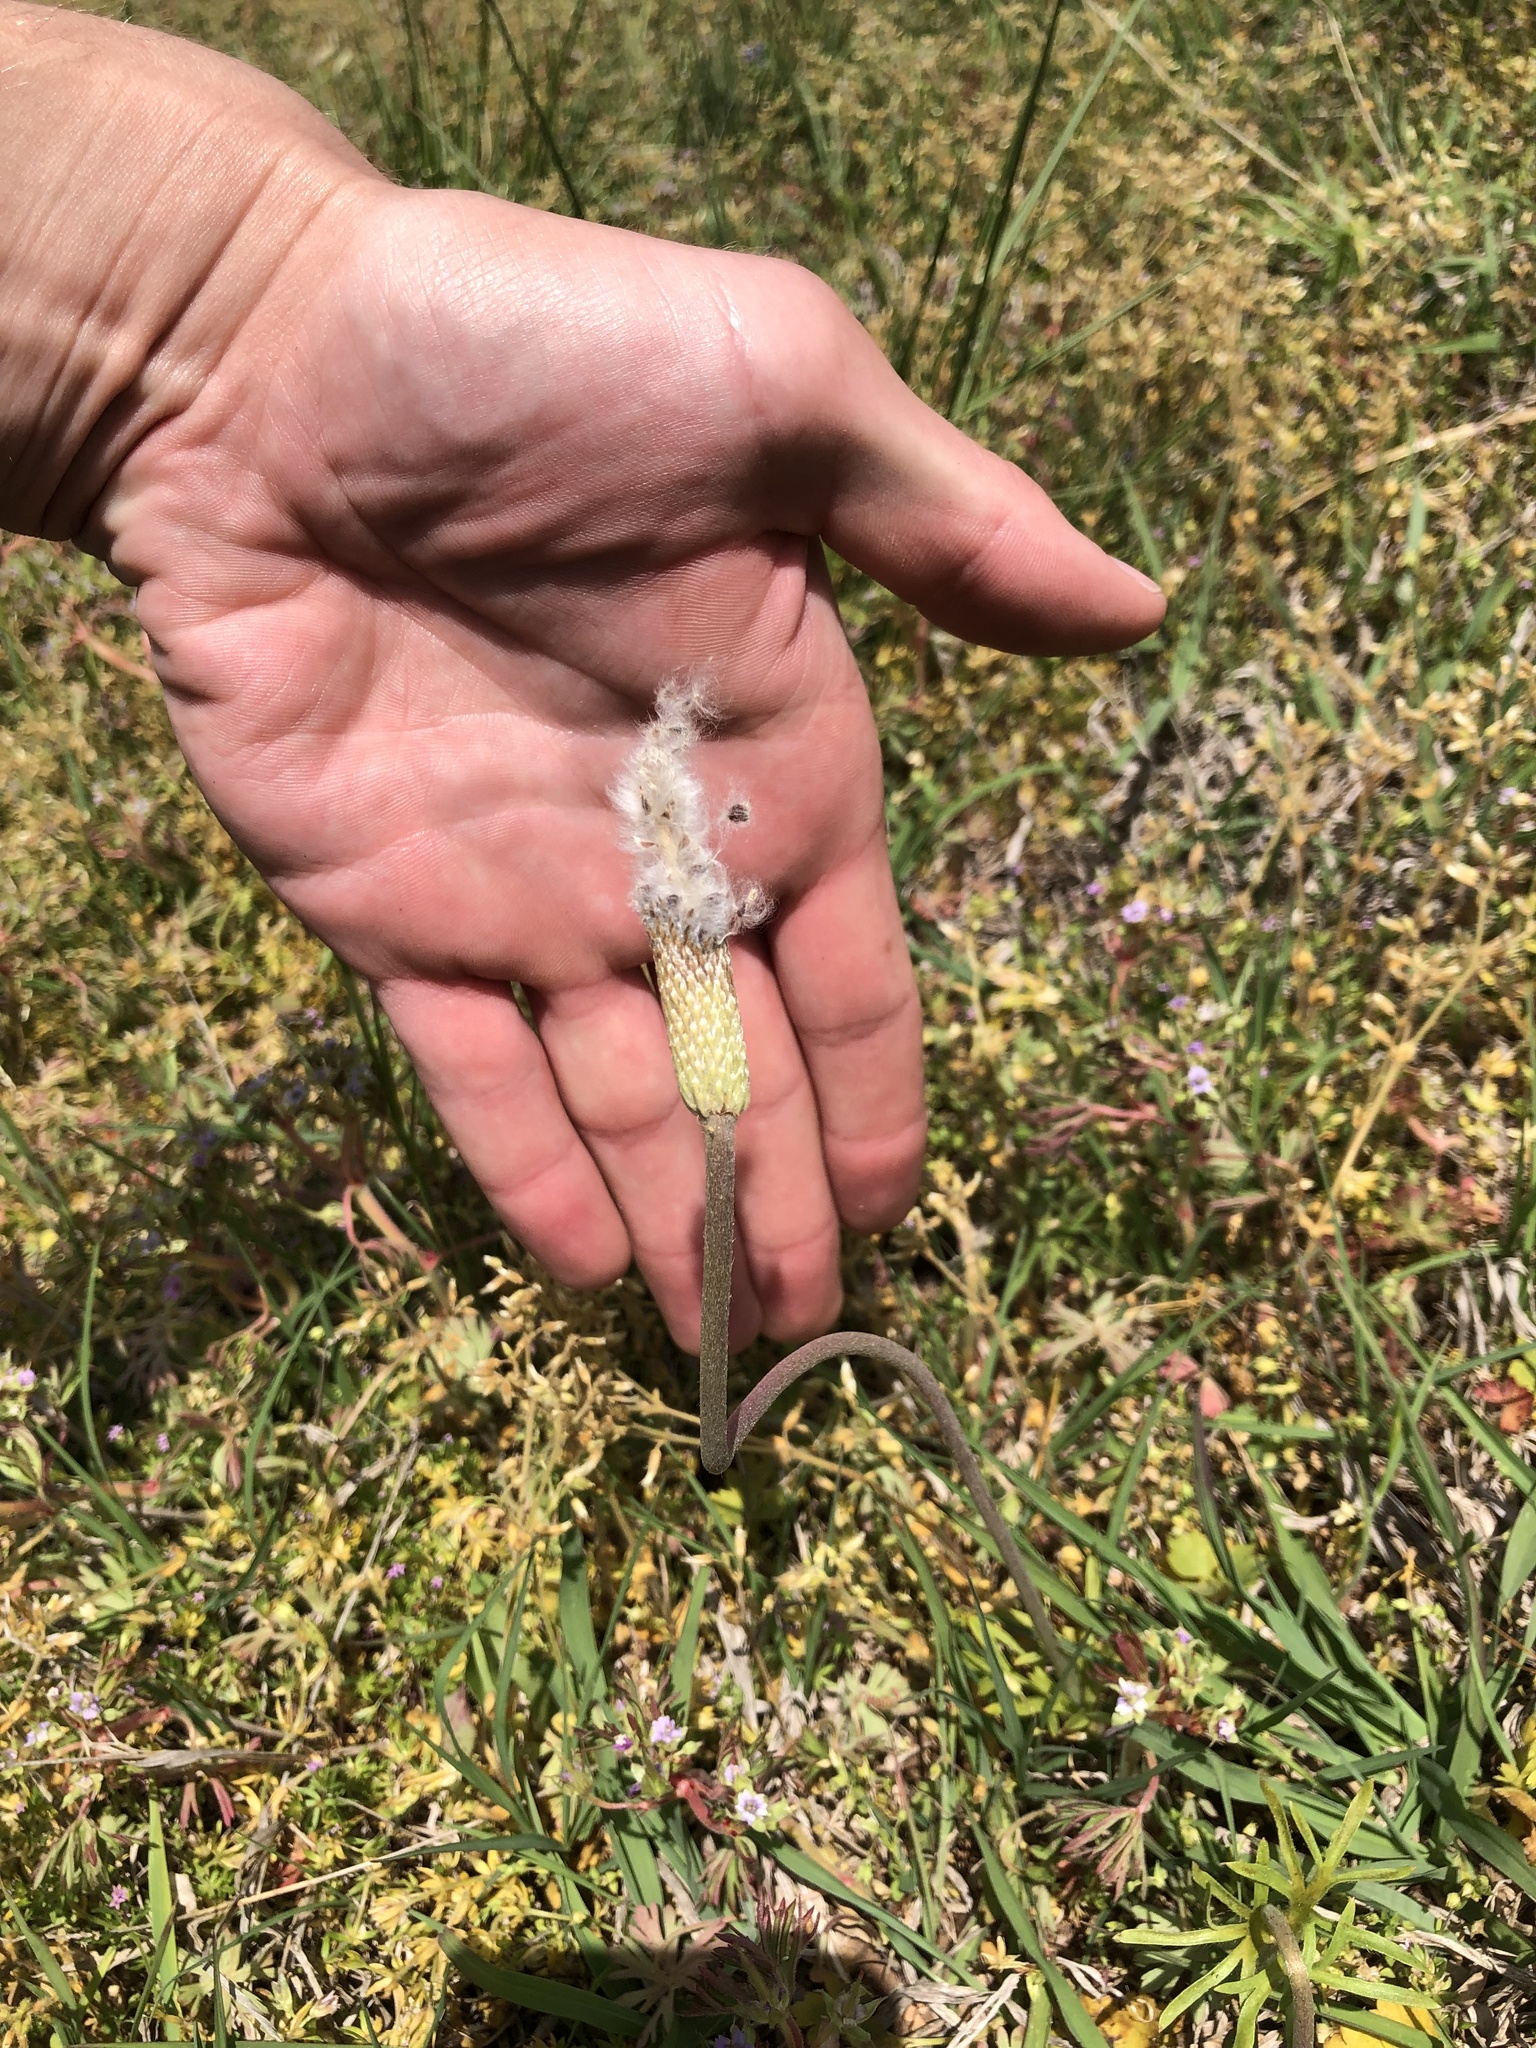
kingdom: Plantae
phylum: Tracheophyta
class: Magnoliopsida
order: Ranunculales
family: Ranunculaceae
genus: Anemone
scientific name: Anemone berlandieri
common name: Ten-petal anemone
